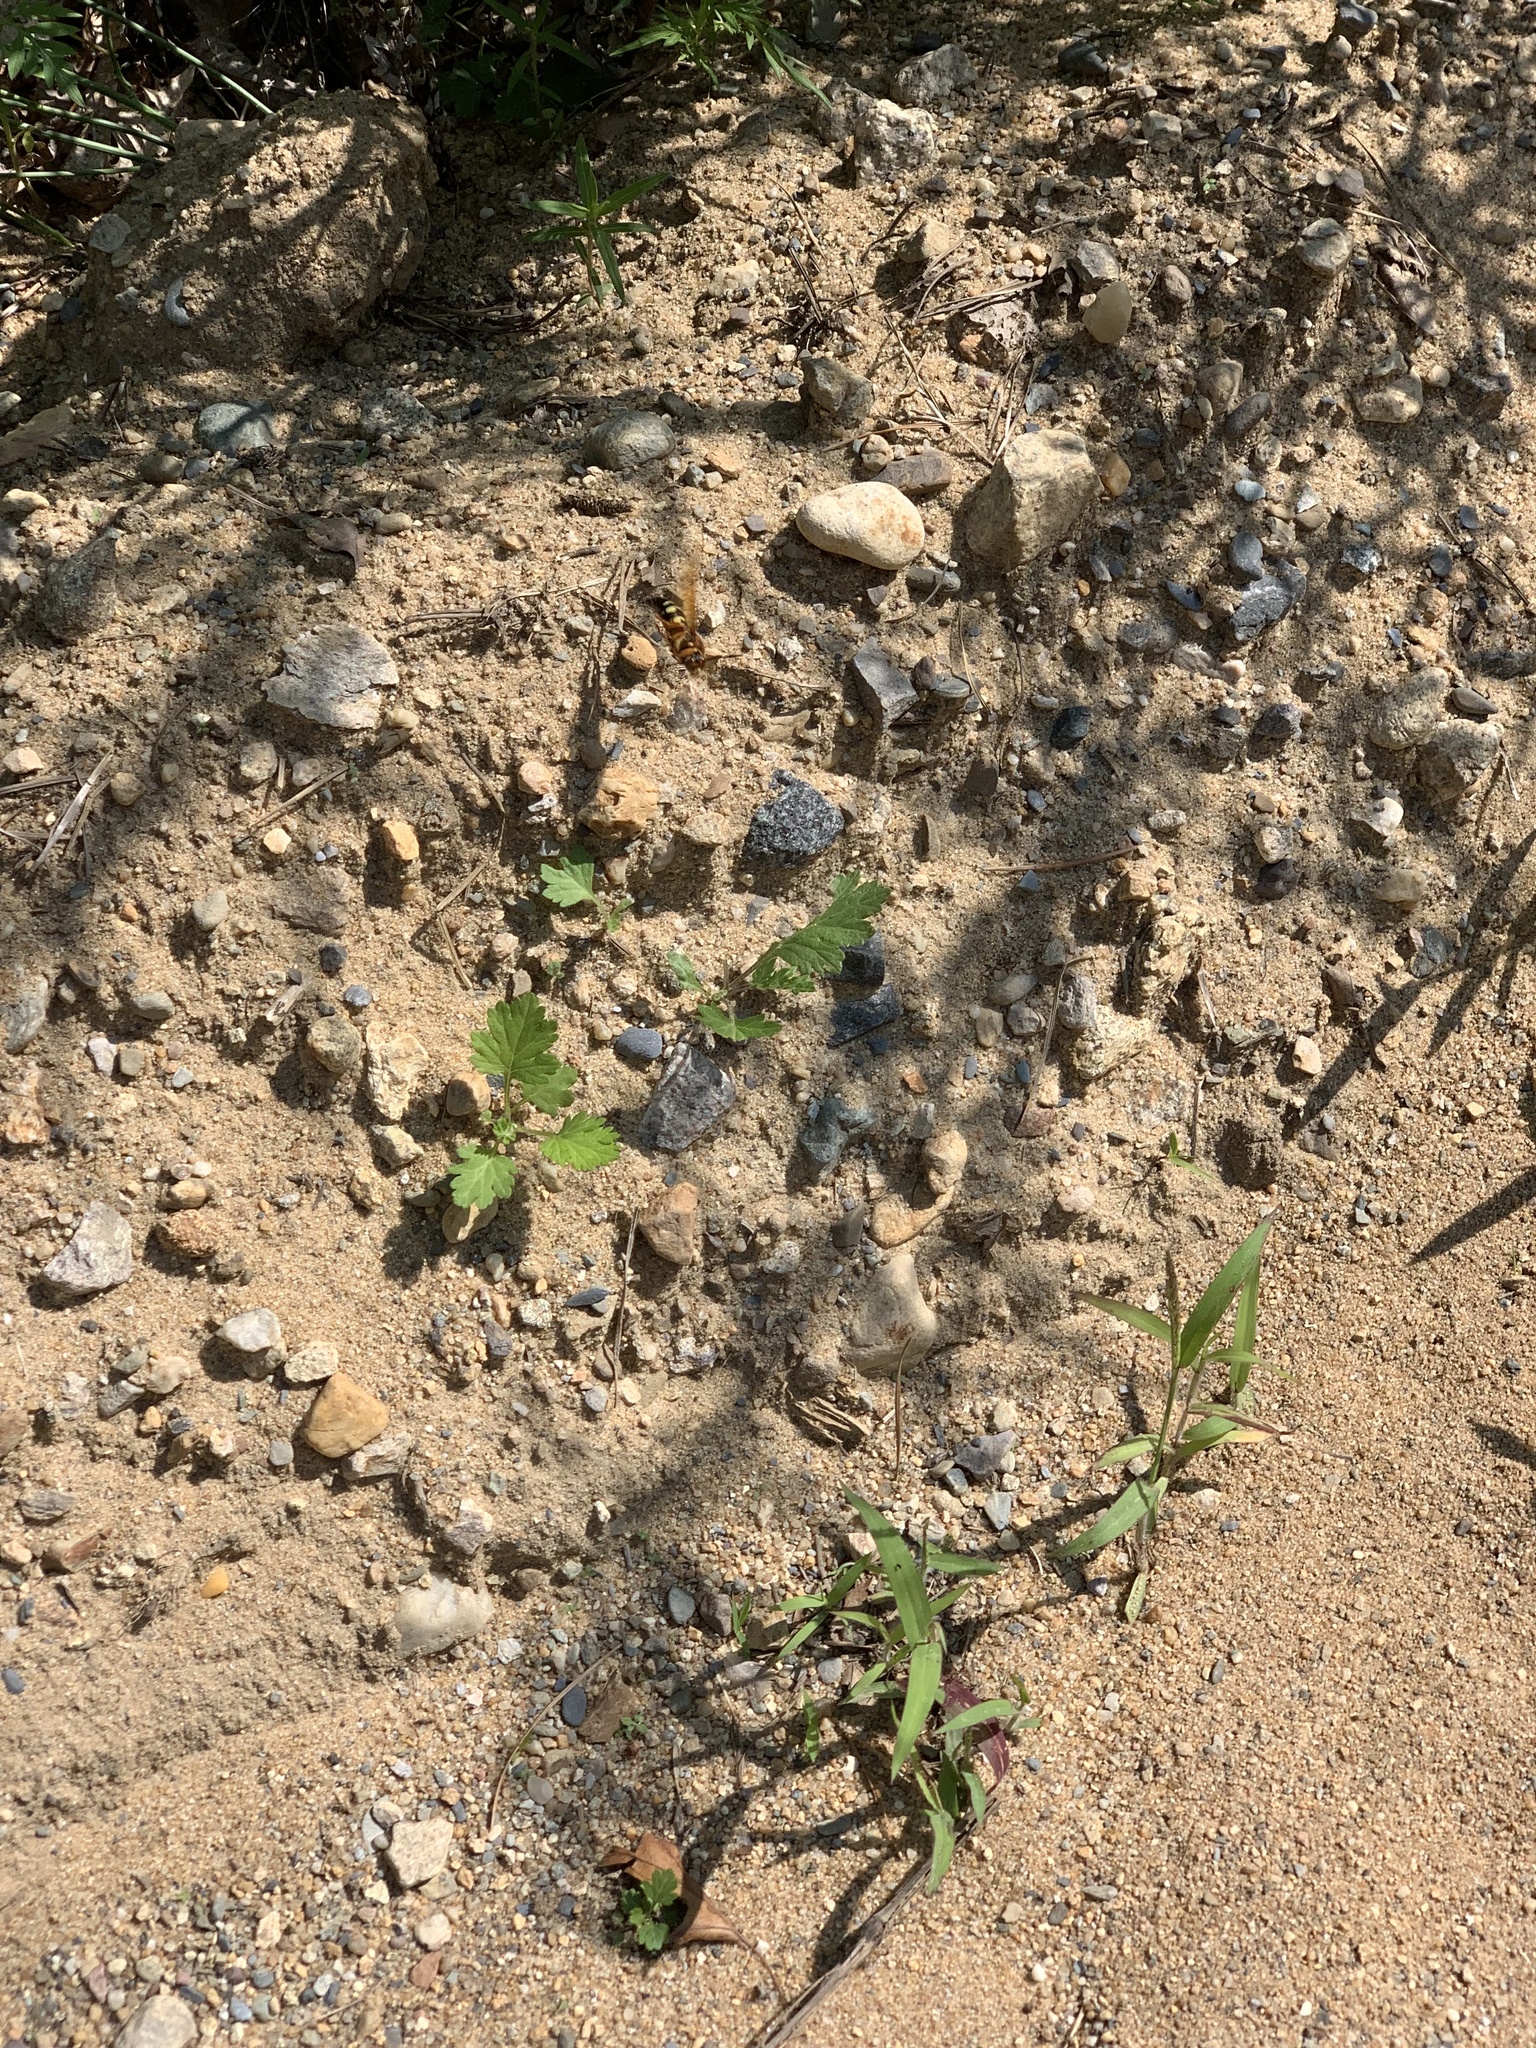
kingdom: Animalia
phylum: Arthropoda
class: Insecta
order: Hymenoptera
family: Crabronidae
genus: Sphecius
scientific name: Sphecius speciosus
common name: Cicada killer
